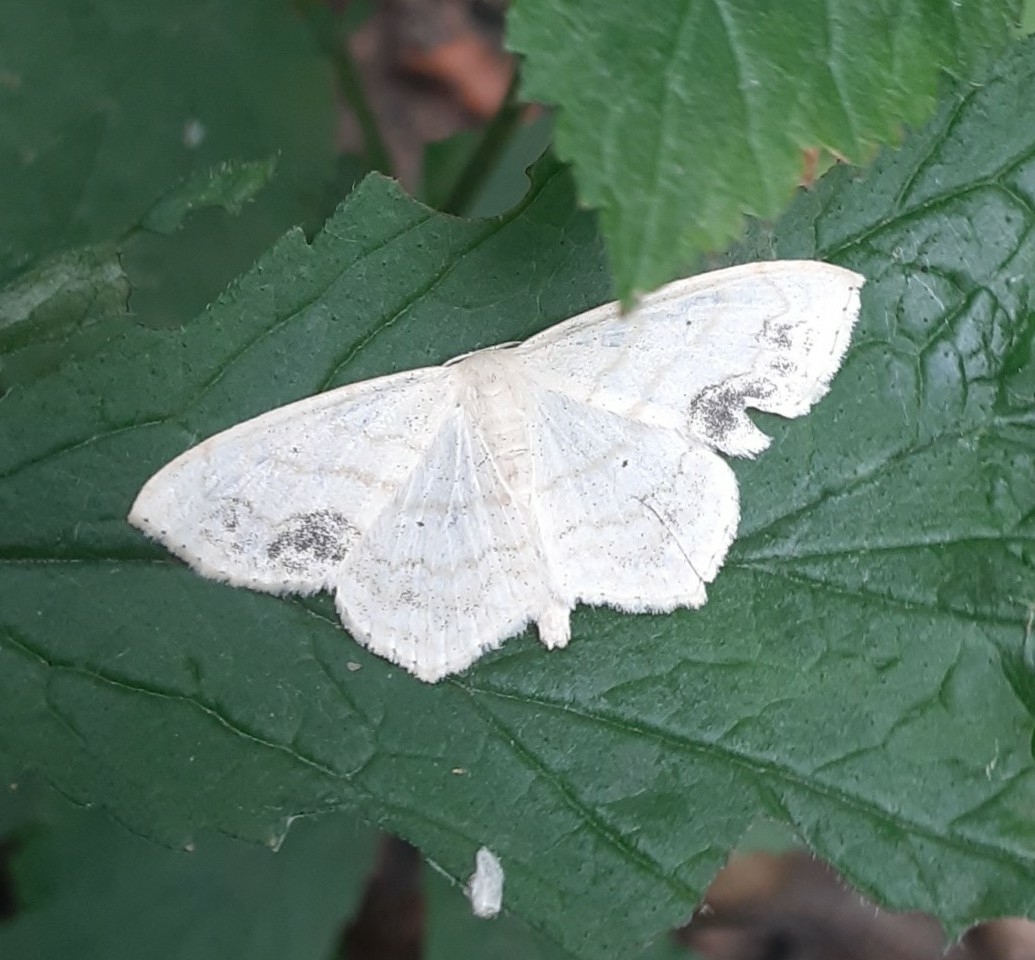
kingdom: Animalia
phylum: Arthropoda
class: Insecta
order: Lepidoptera
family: Geometridae
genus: Scopula
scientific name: Scopula limboundata
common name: Large lace border
